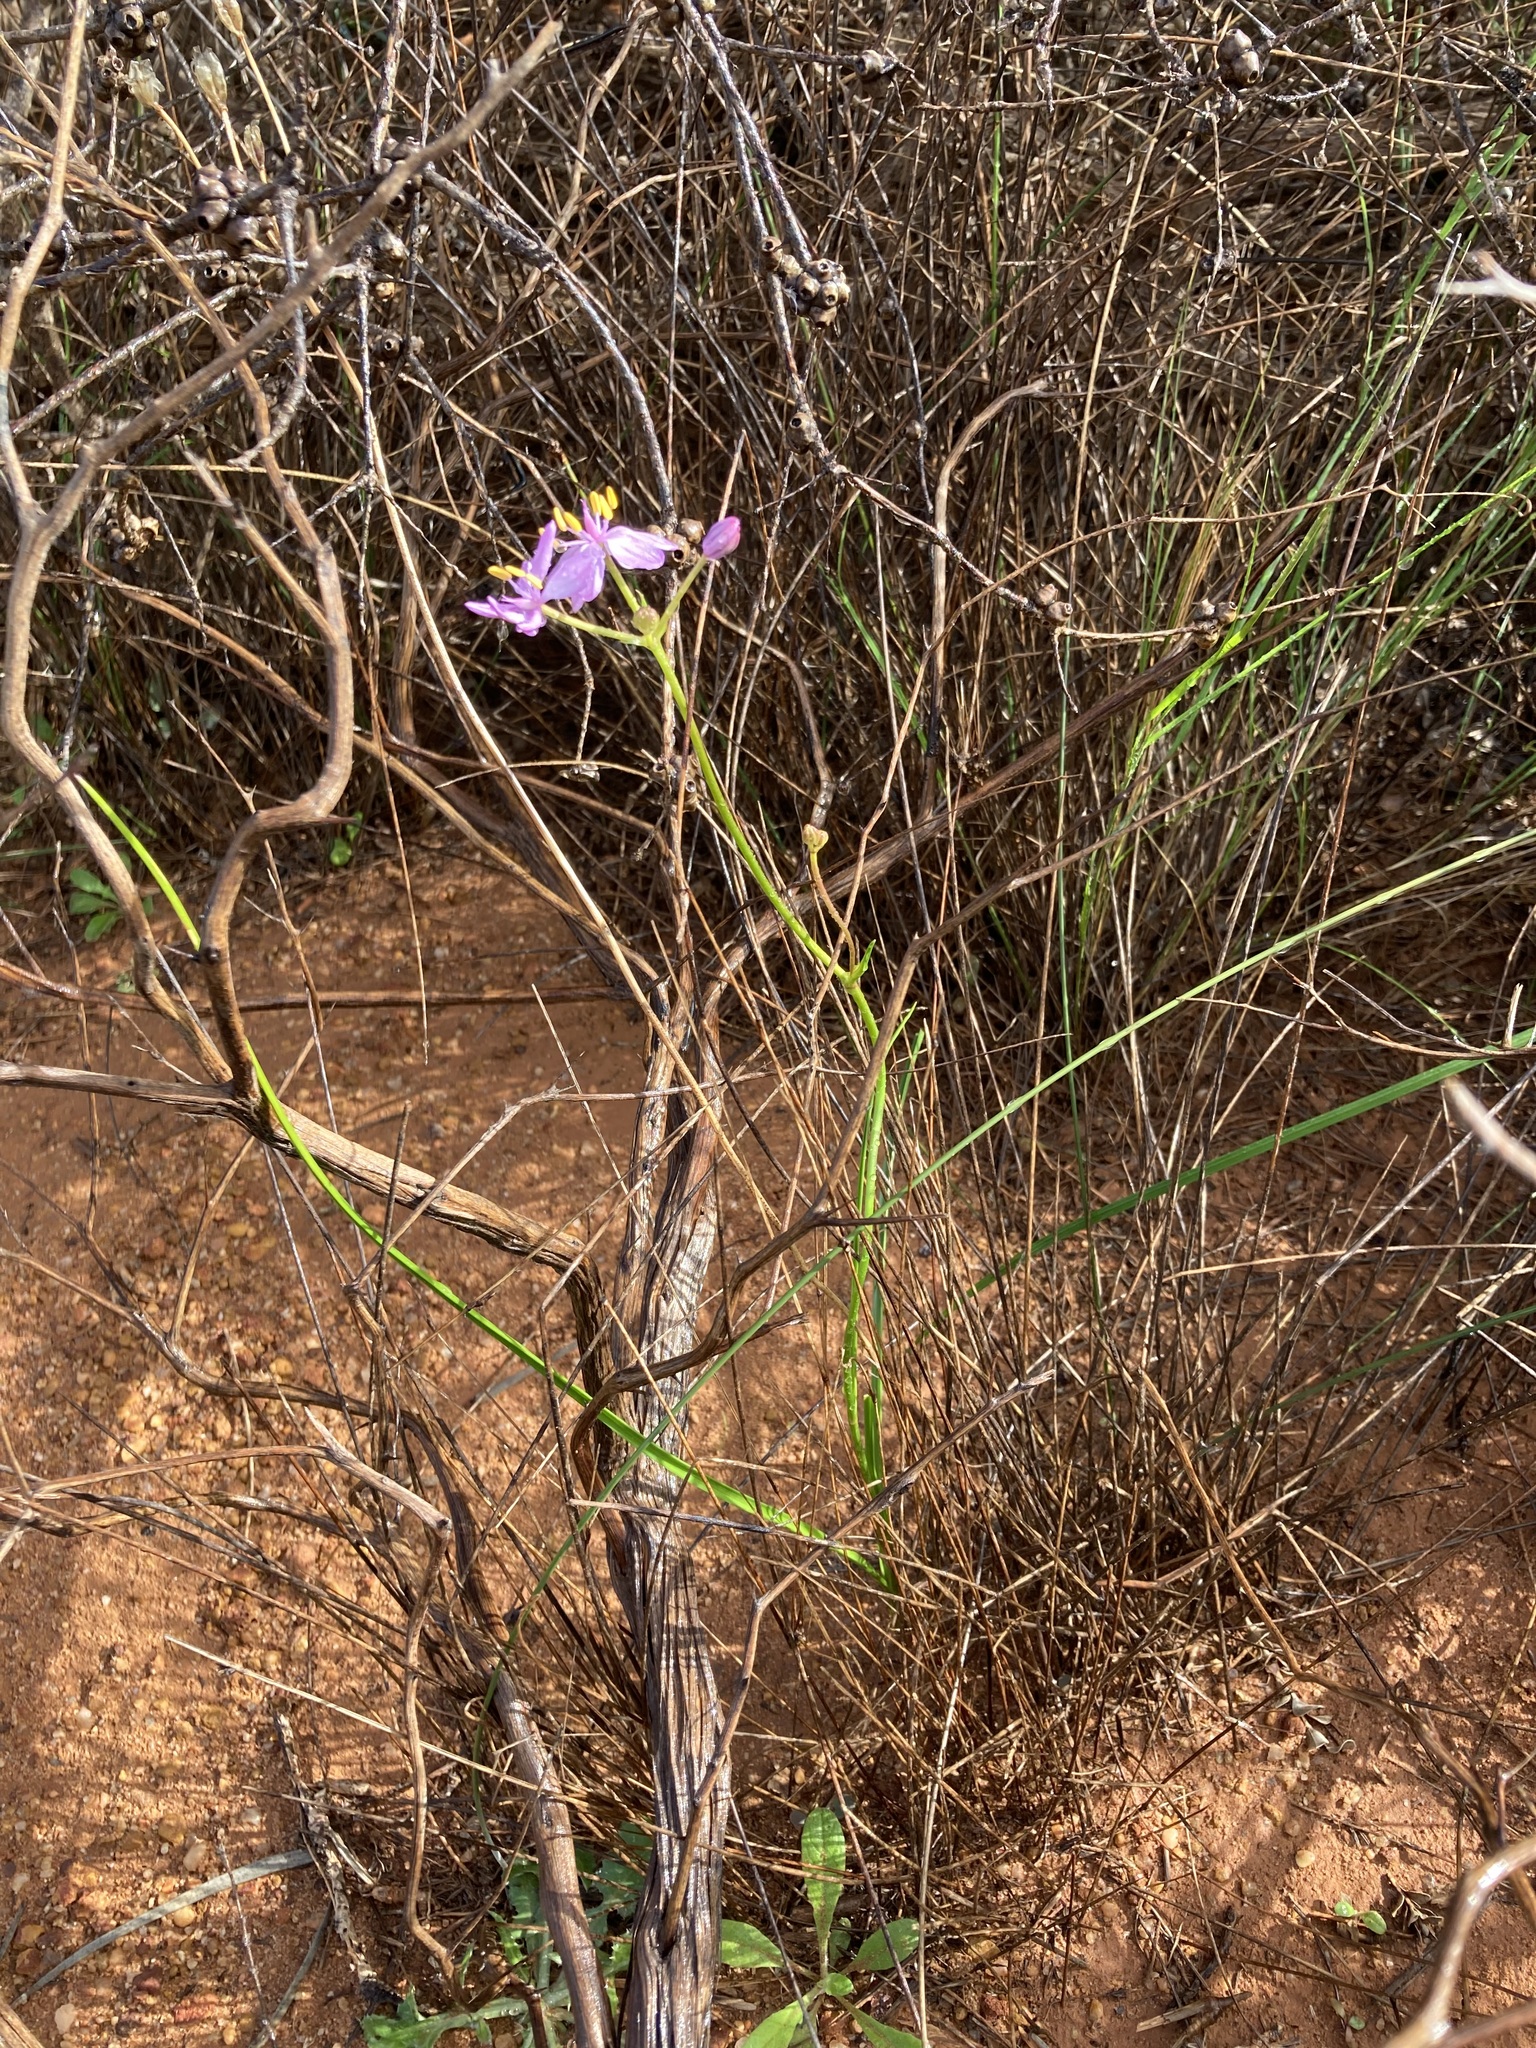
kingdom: Plantae
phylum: Tracheophyta
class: Liliopsida
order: Liliales
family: Colchicaceae
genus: Burchardia
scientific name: Burchardia rosea
